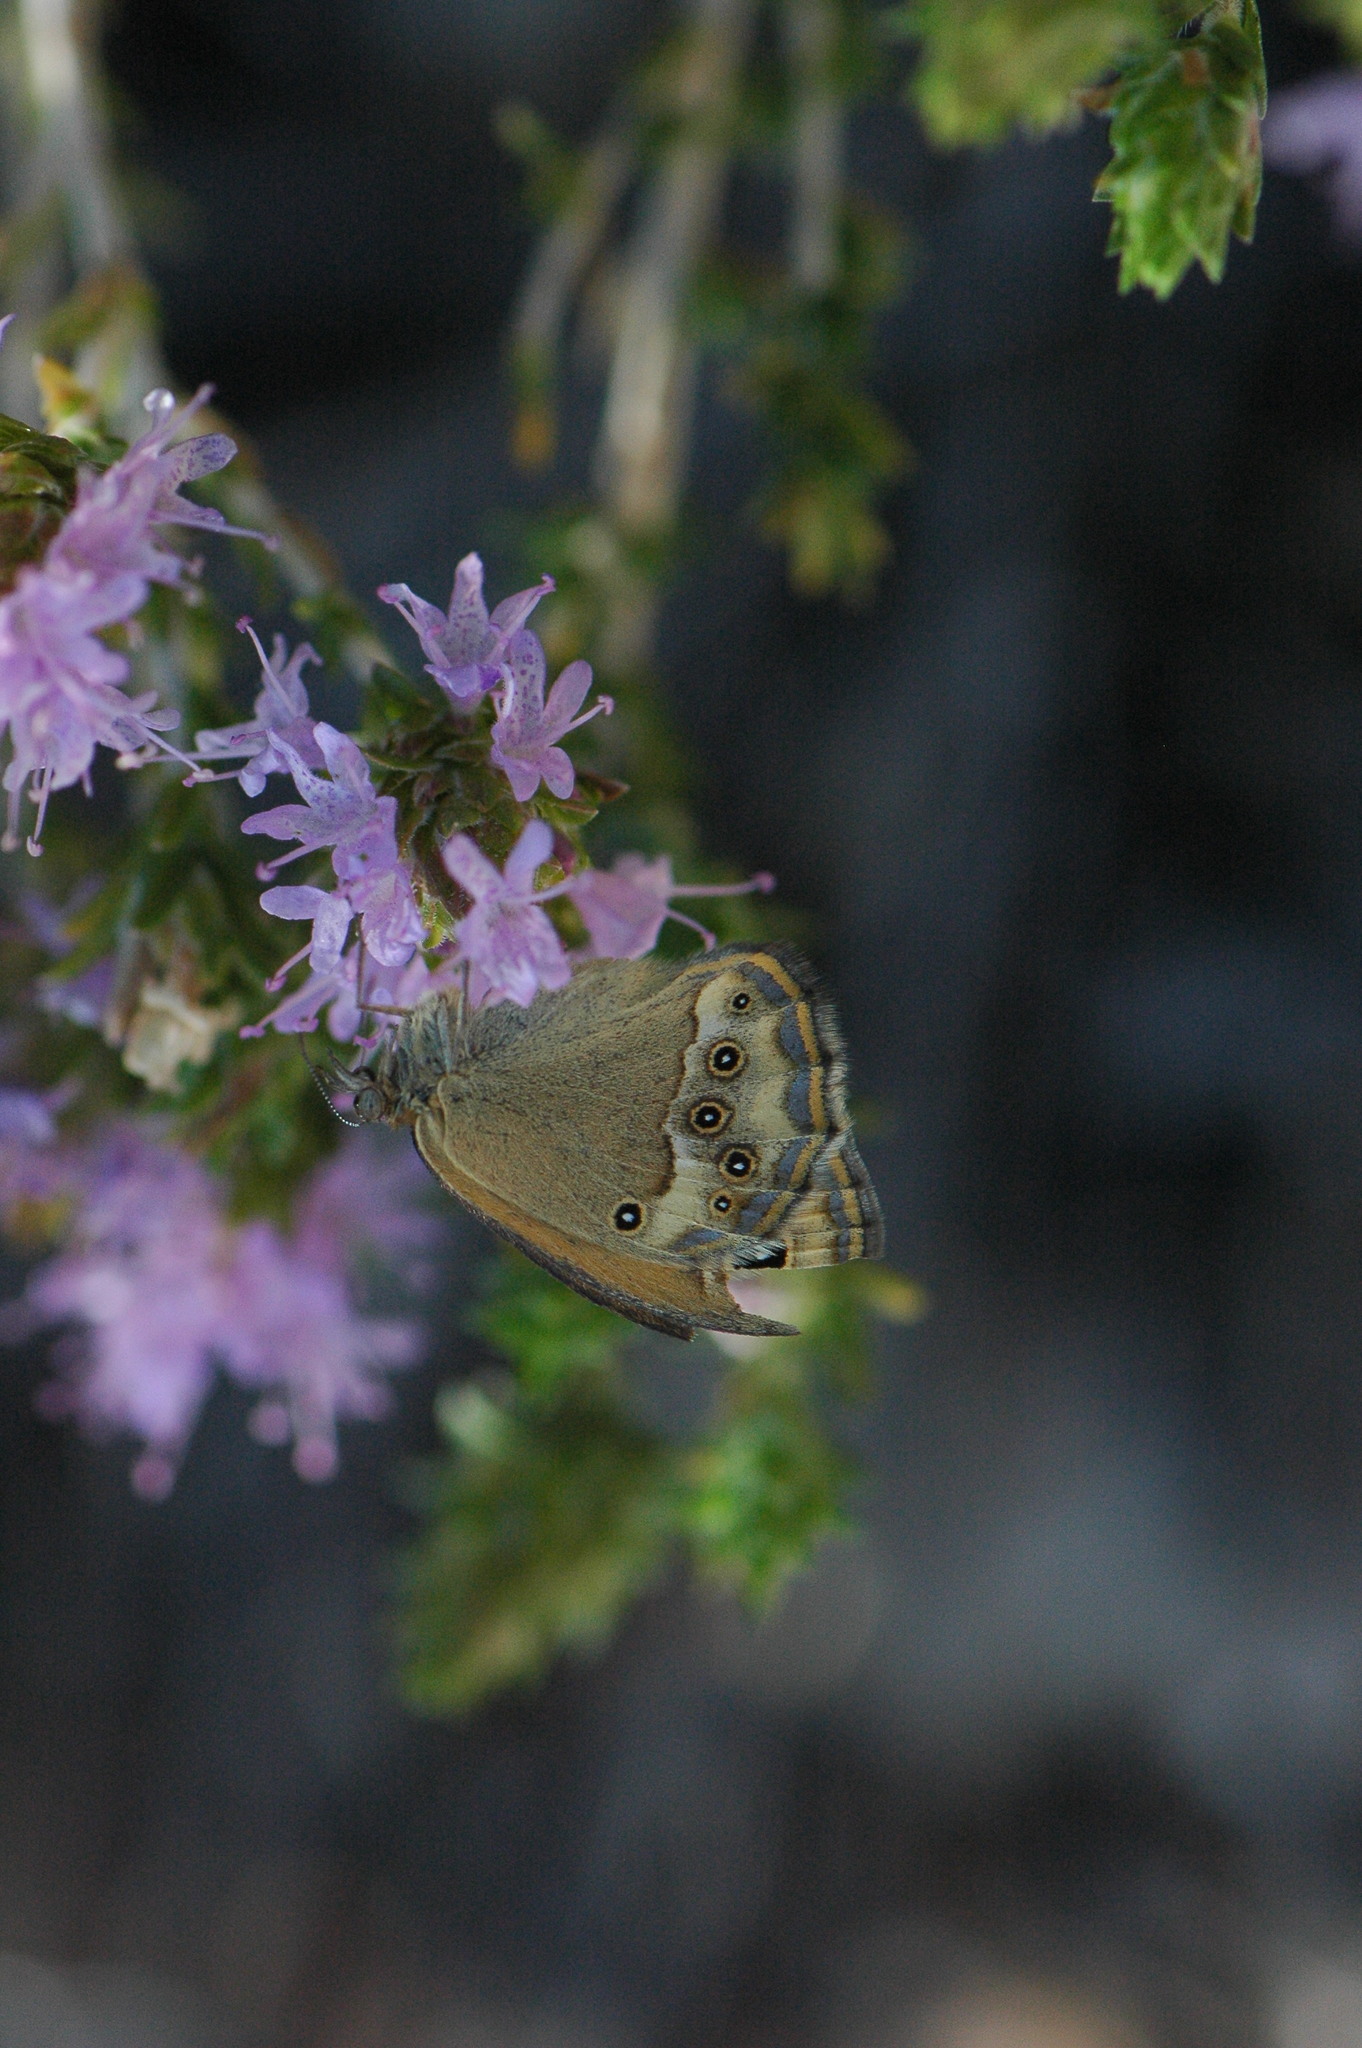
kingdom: Animalia
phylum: Arthropoda
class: Insecta
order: Lepidoptera
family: Nymphalidae
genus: Coenonympha
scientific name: Coenonympha dorus
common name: Dusky heath
